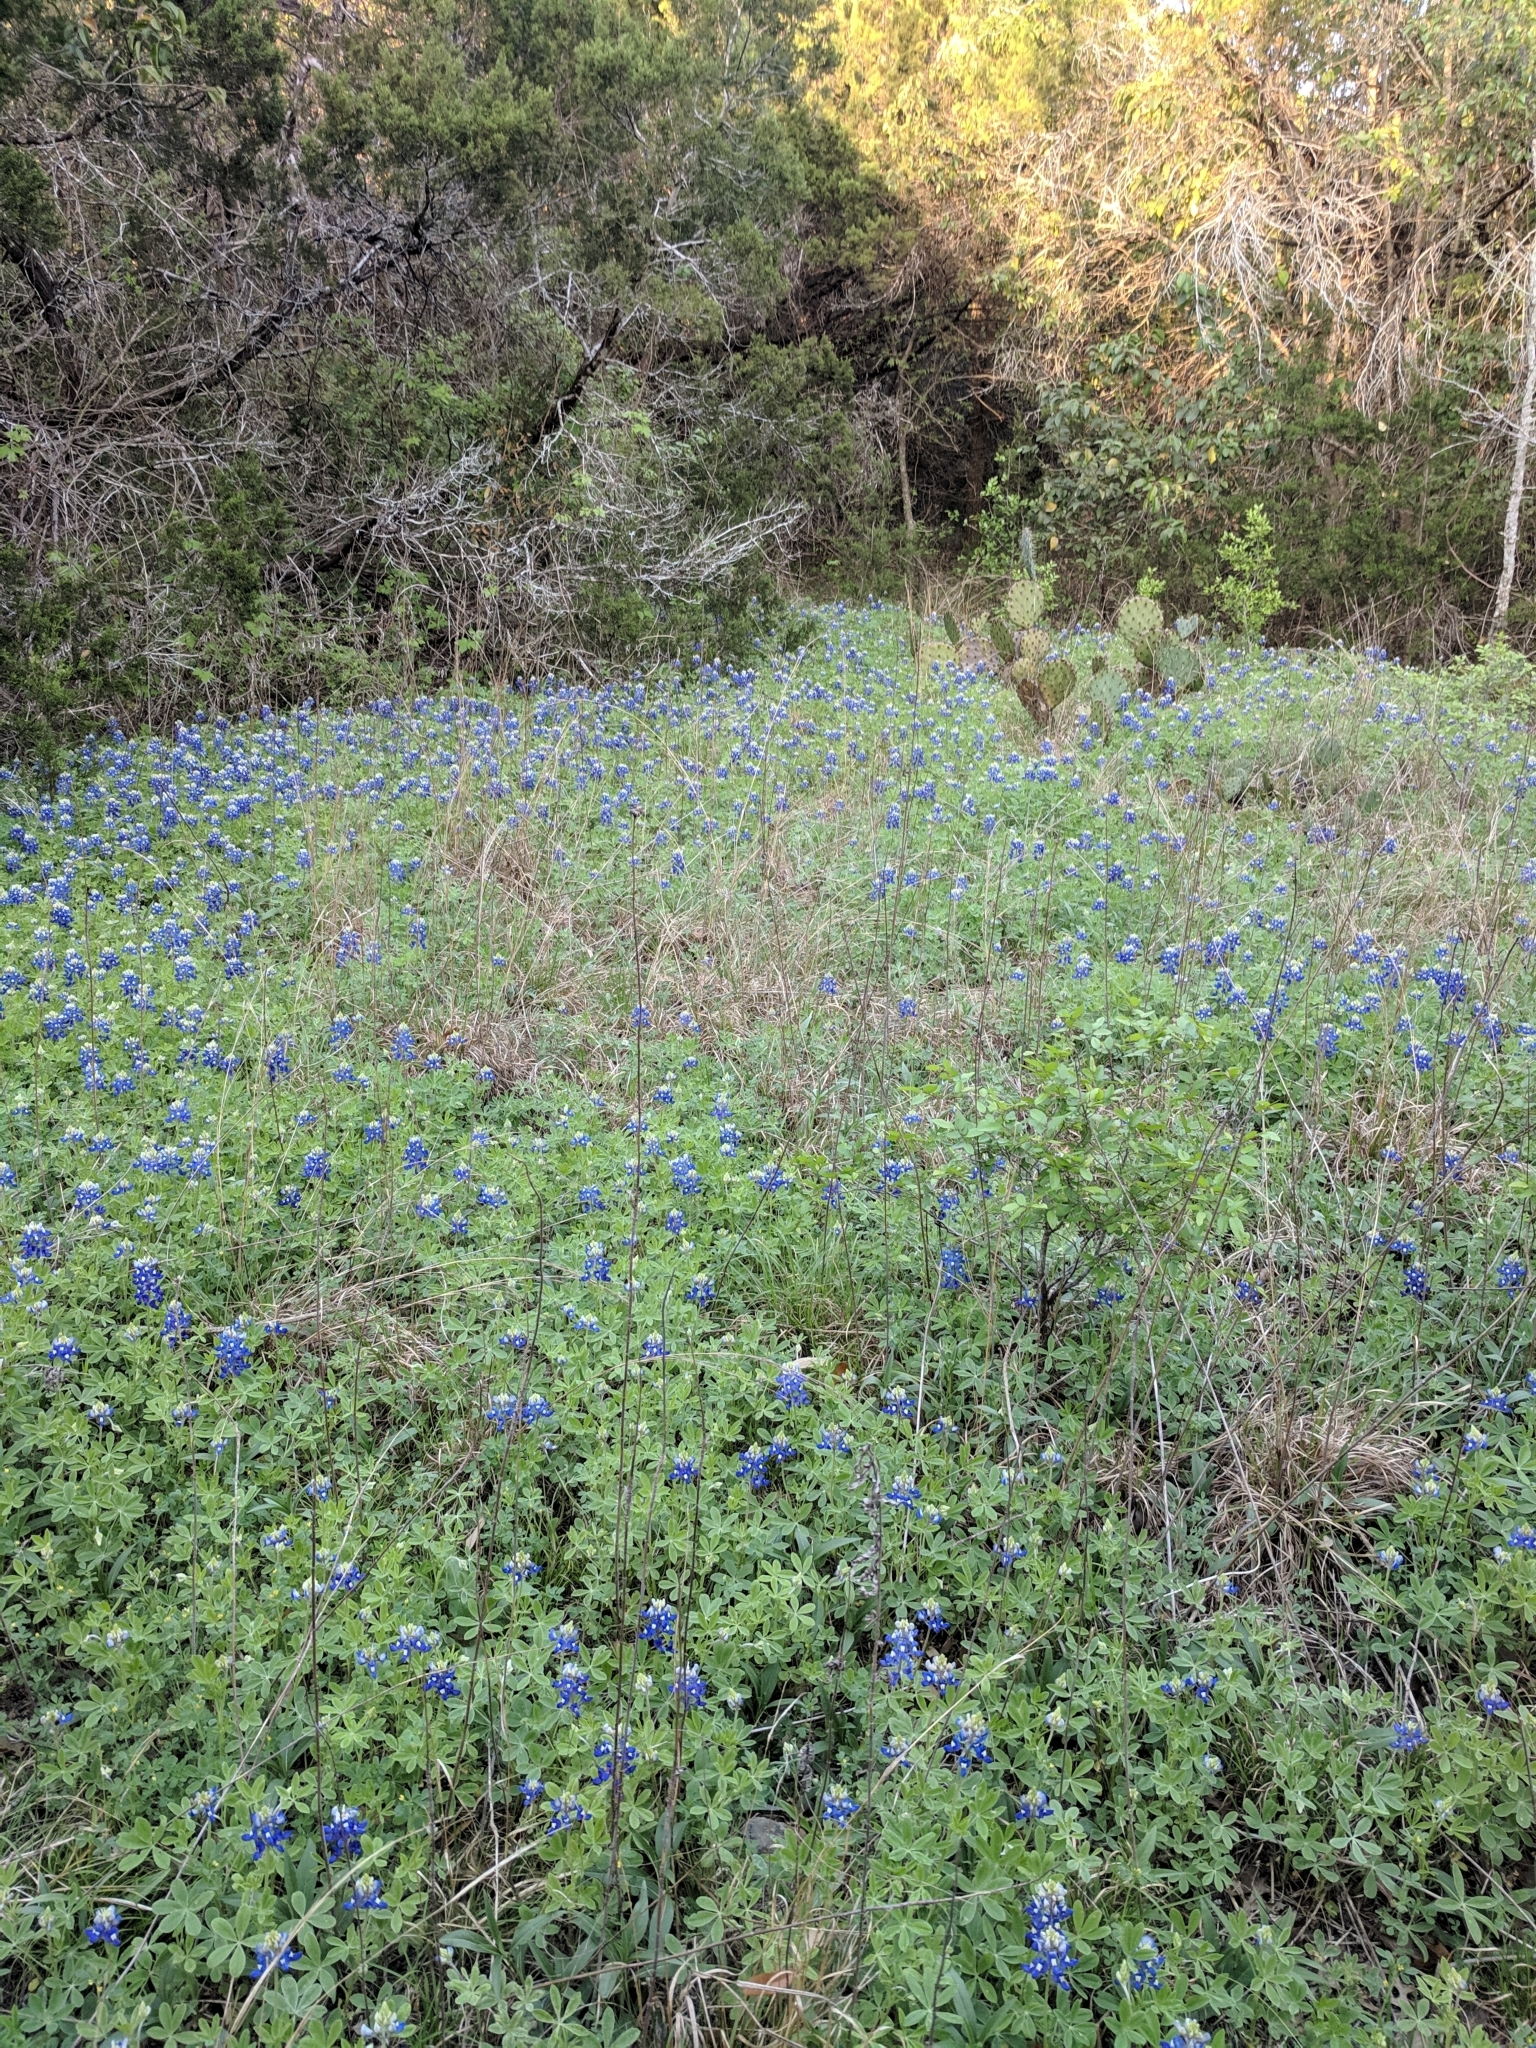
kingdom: Plantae
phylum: Tracheophyta
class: Magnoliopsida
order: Fabales
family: Fabaceae
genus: Lupinus
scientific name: Lupinus texensis
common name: Texas bluebonnet
